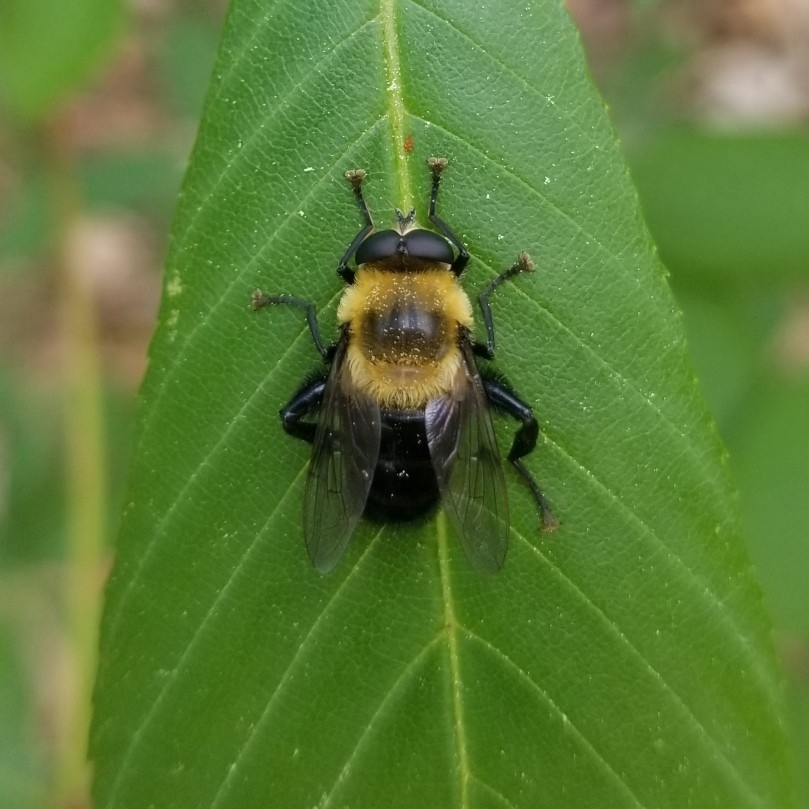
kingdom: Animalia
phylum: Arthropoda
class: Insecta
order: Diptera
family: Syrphidae
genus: Imatisma
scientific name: Imatisma bautias
